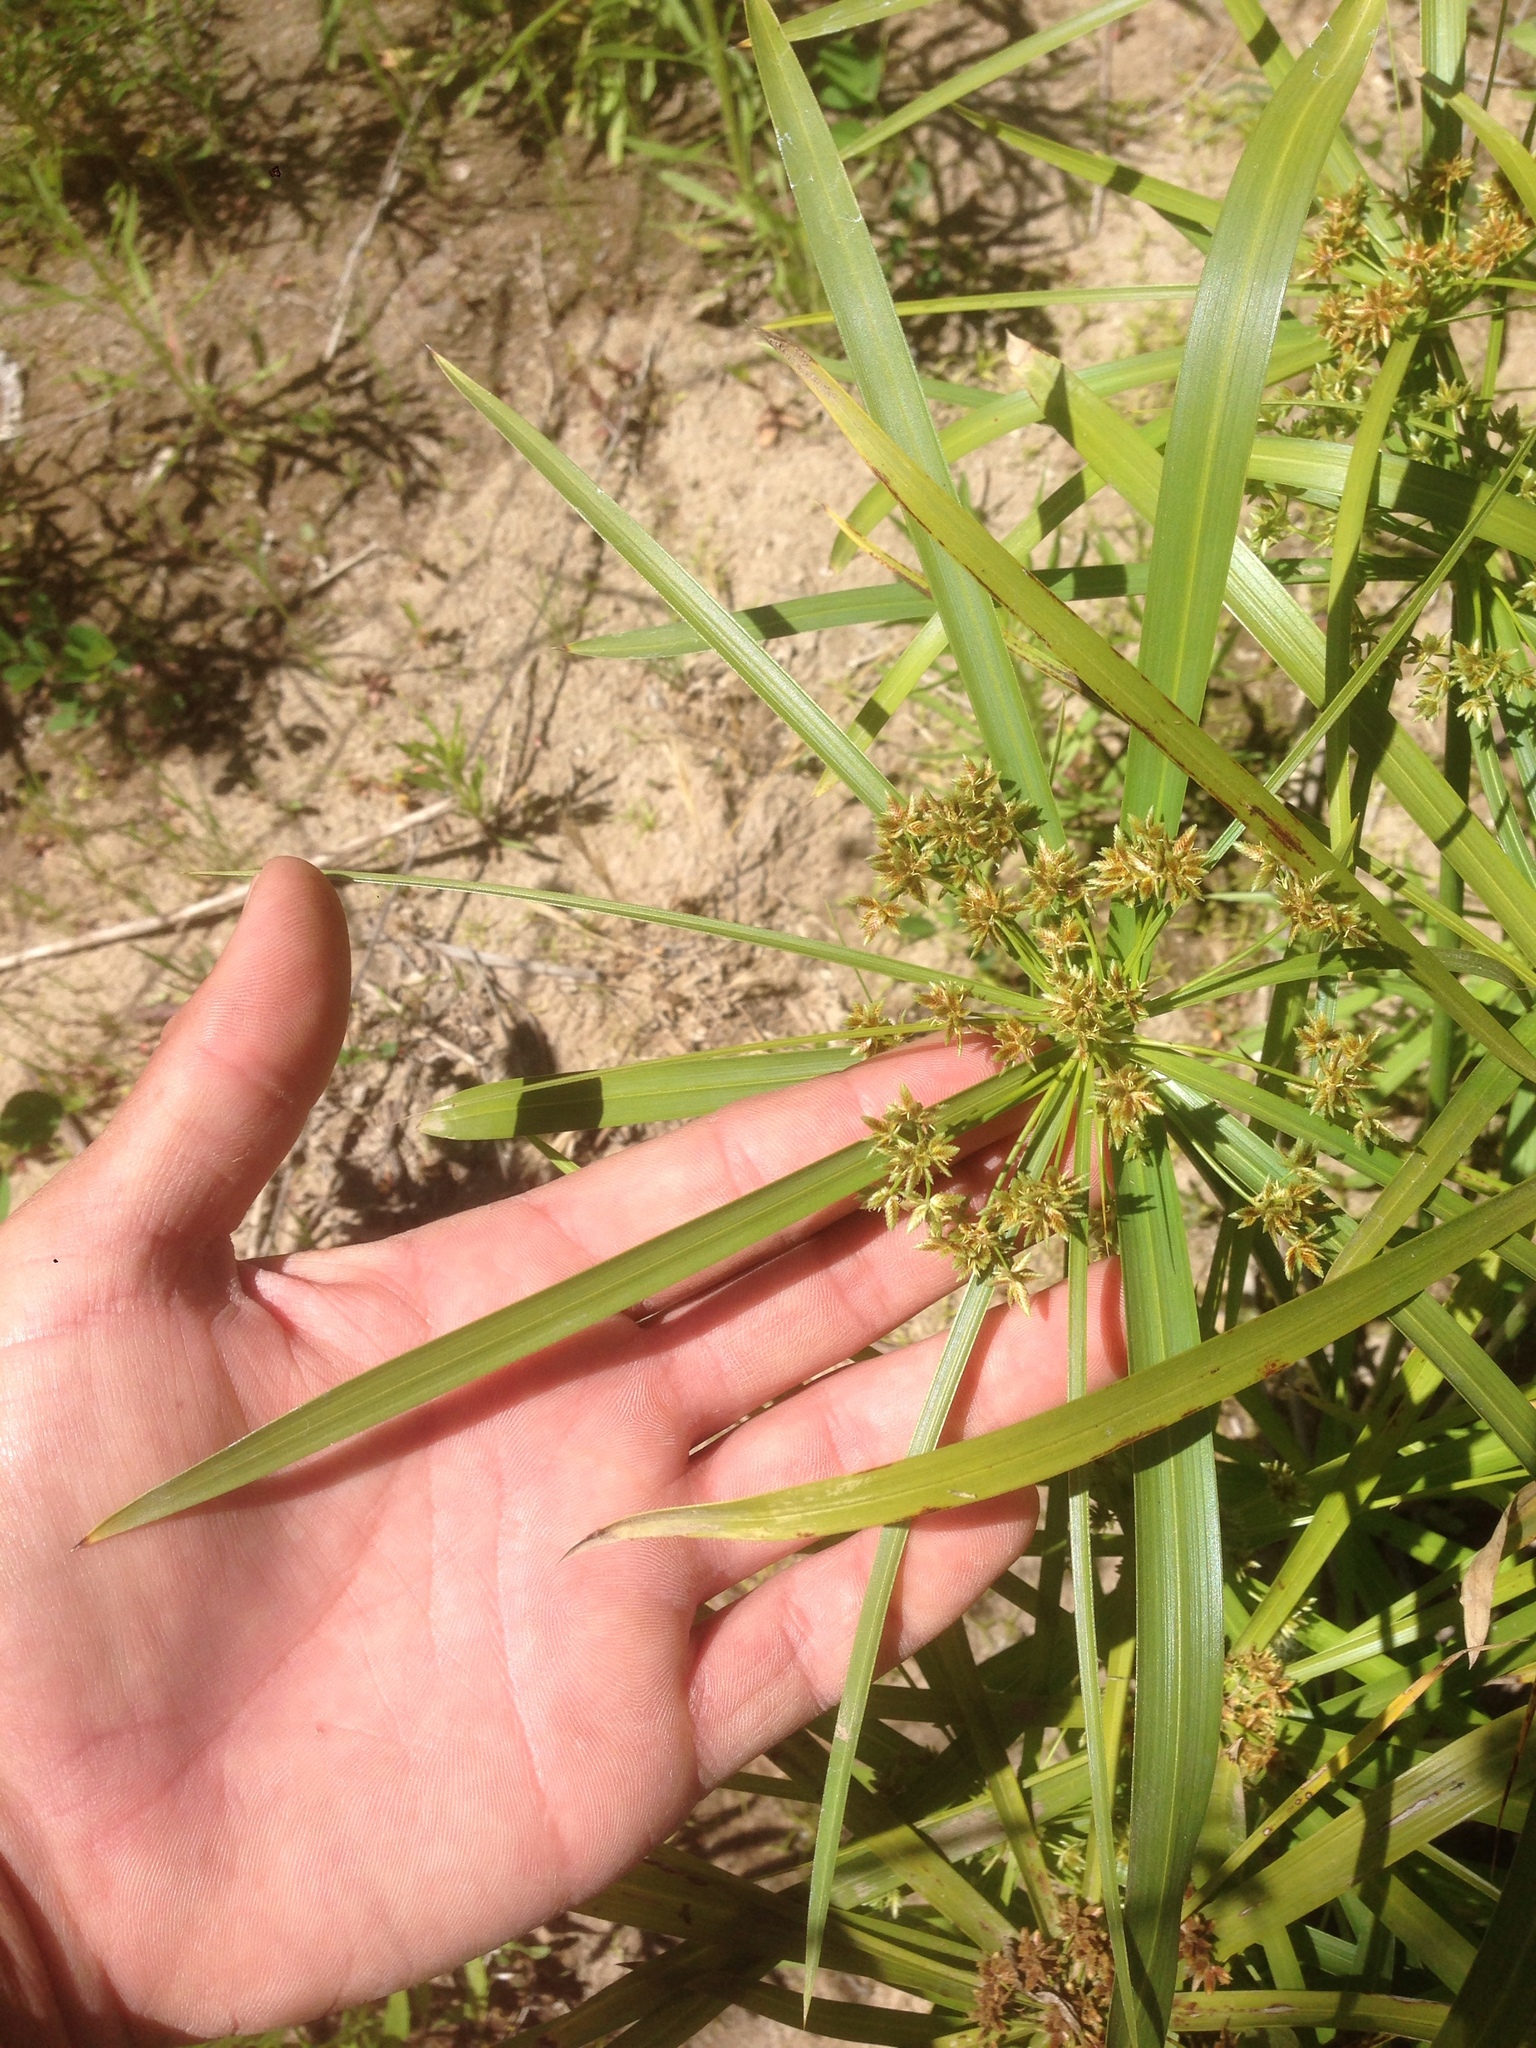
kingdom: Plantae
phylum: Tracheophyta
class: Liliopsida
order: Poales
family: Cyperaceae
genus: Cyperus
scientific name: Cyperus alternifolius
